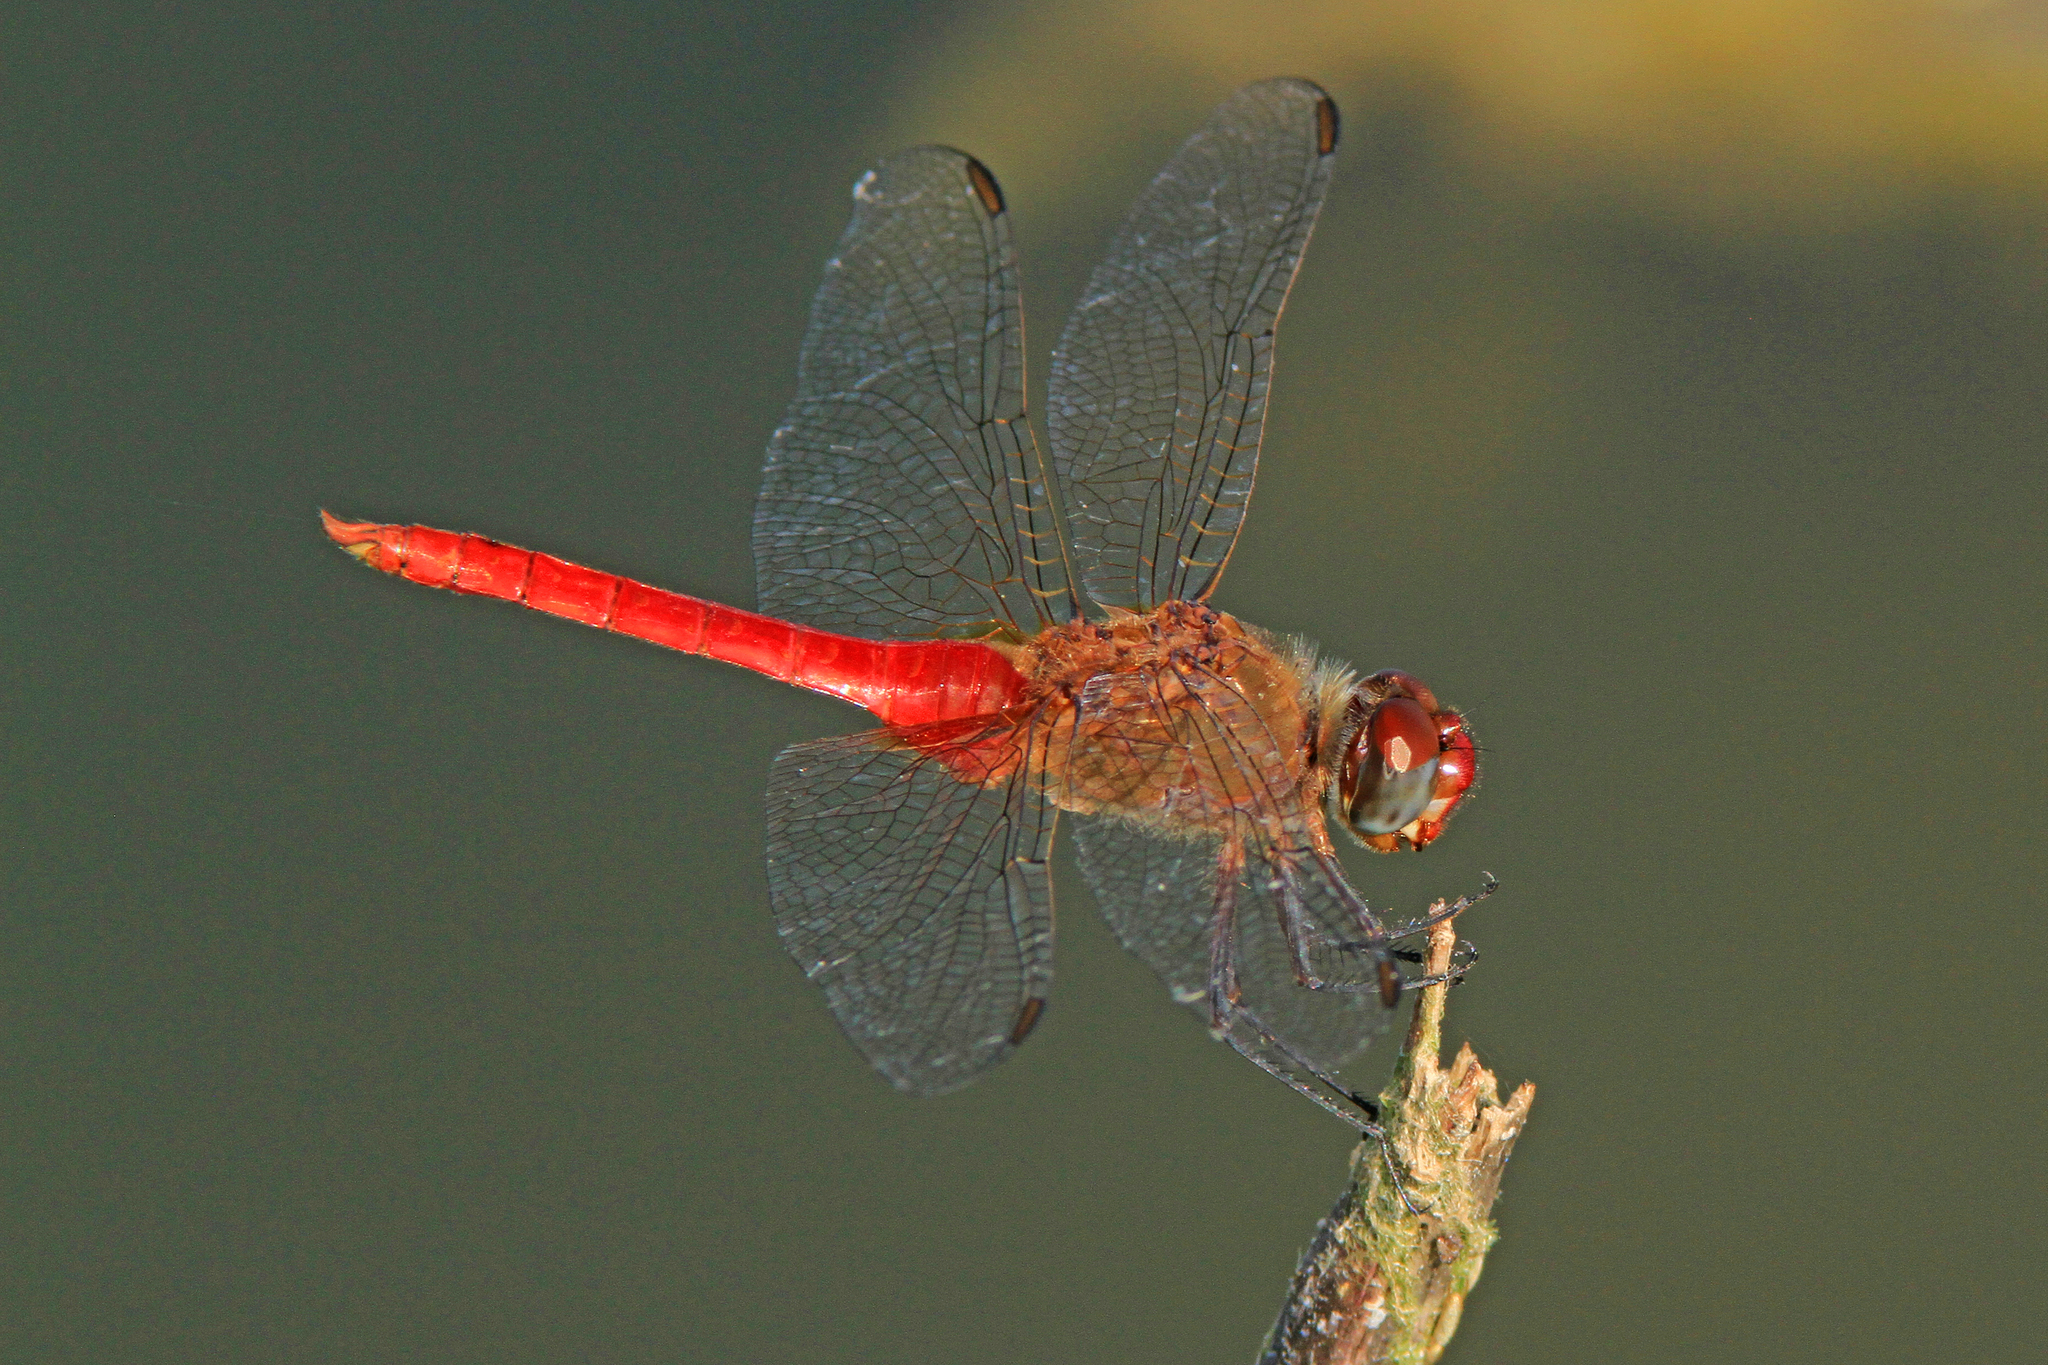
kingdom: Animalia
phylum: Arthropoda
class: Insecta
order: Odonata
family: Libellulidae
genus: Brachymesia
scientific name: Brachymesia furcata
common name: Red-taled pennant
